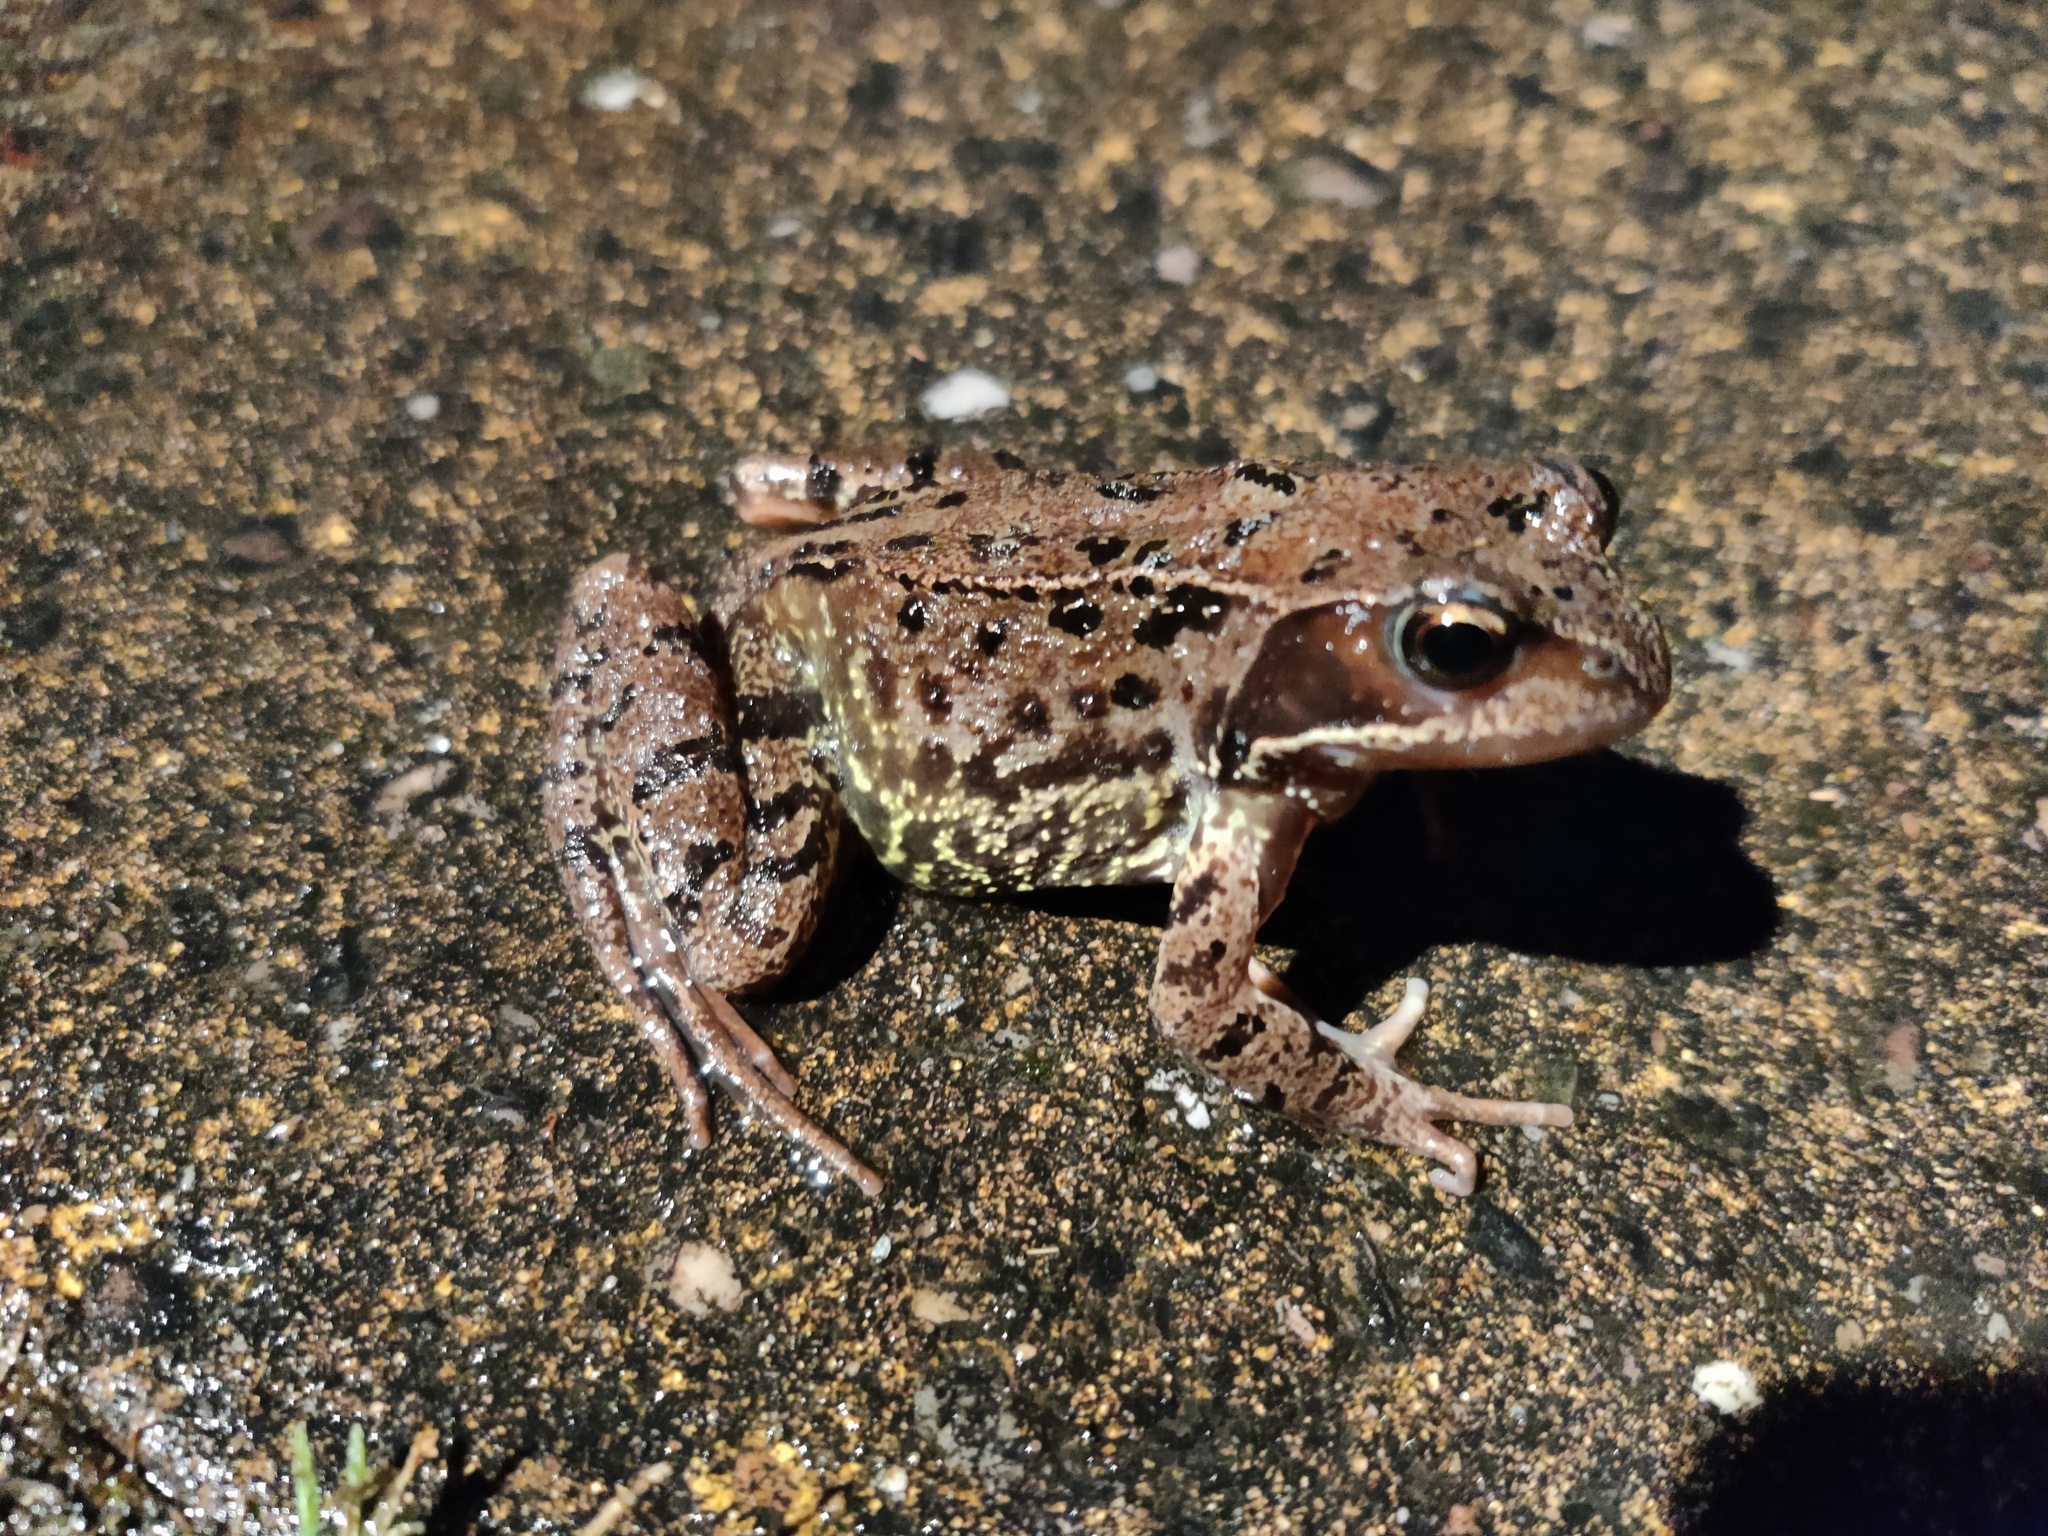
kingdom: Animalia
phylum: Chordata
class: Amphibia
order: Anura
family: Ranidae
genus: Rana
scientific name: Rana temporaria
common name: Common frog
